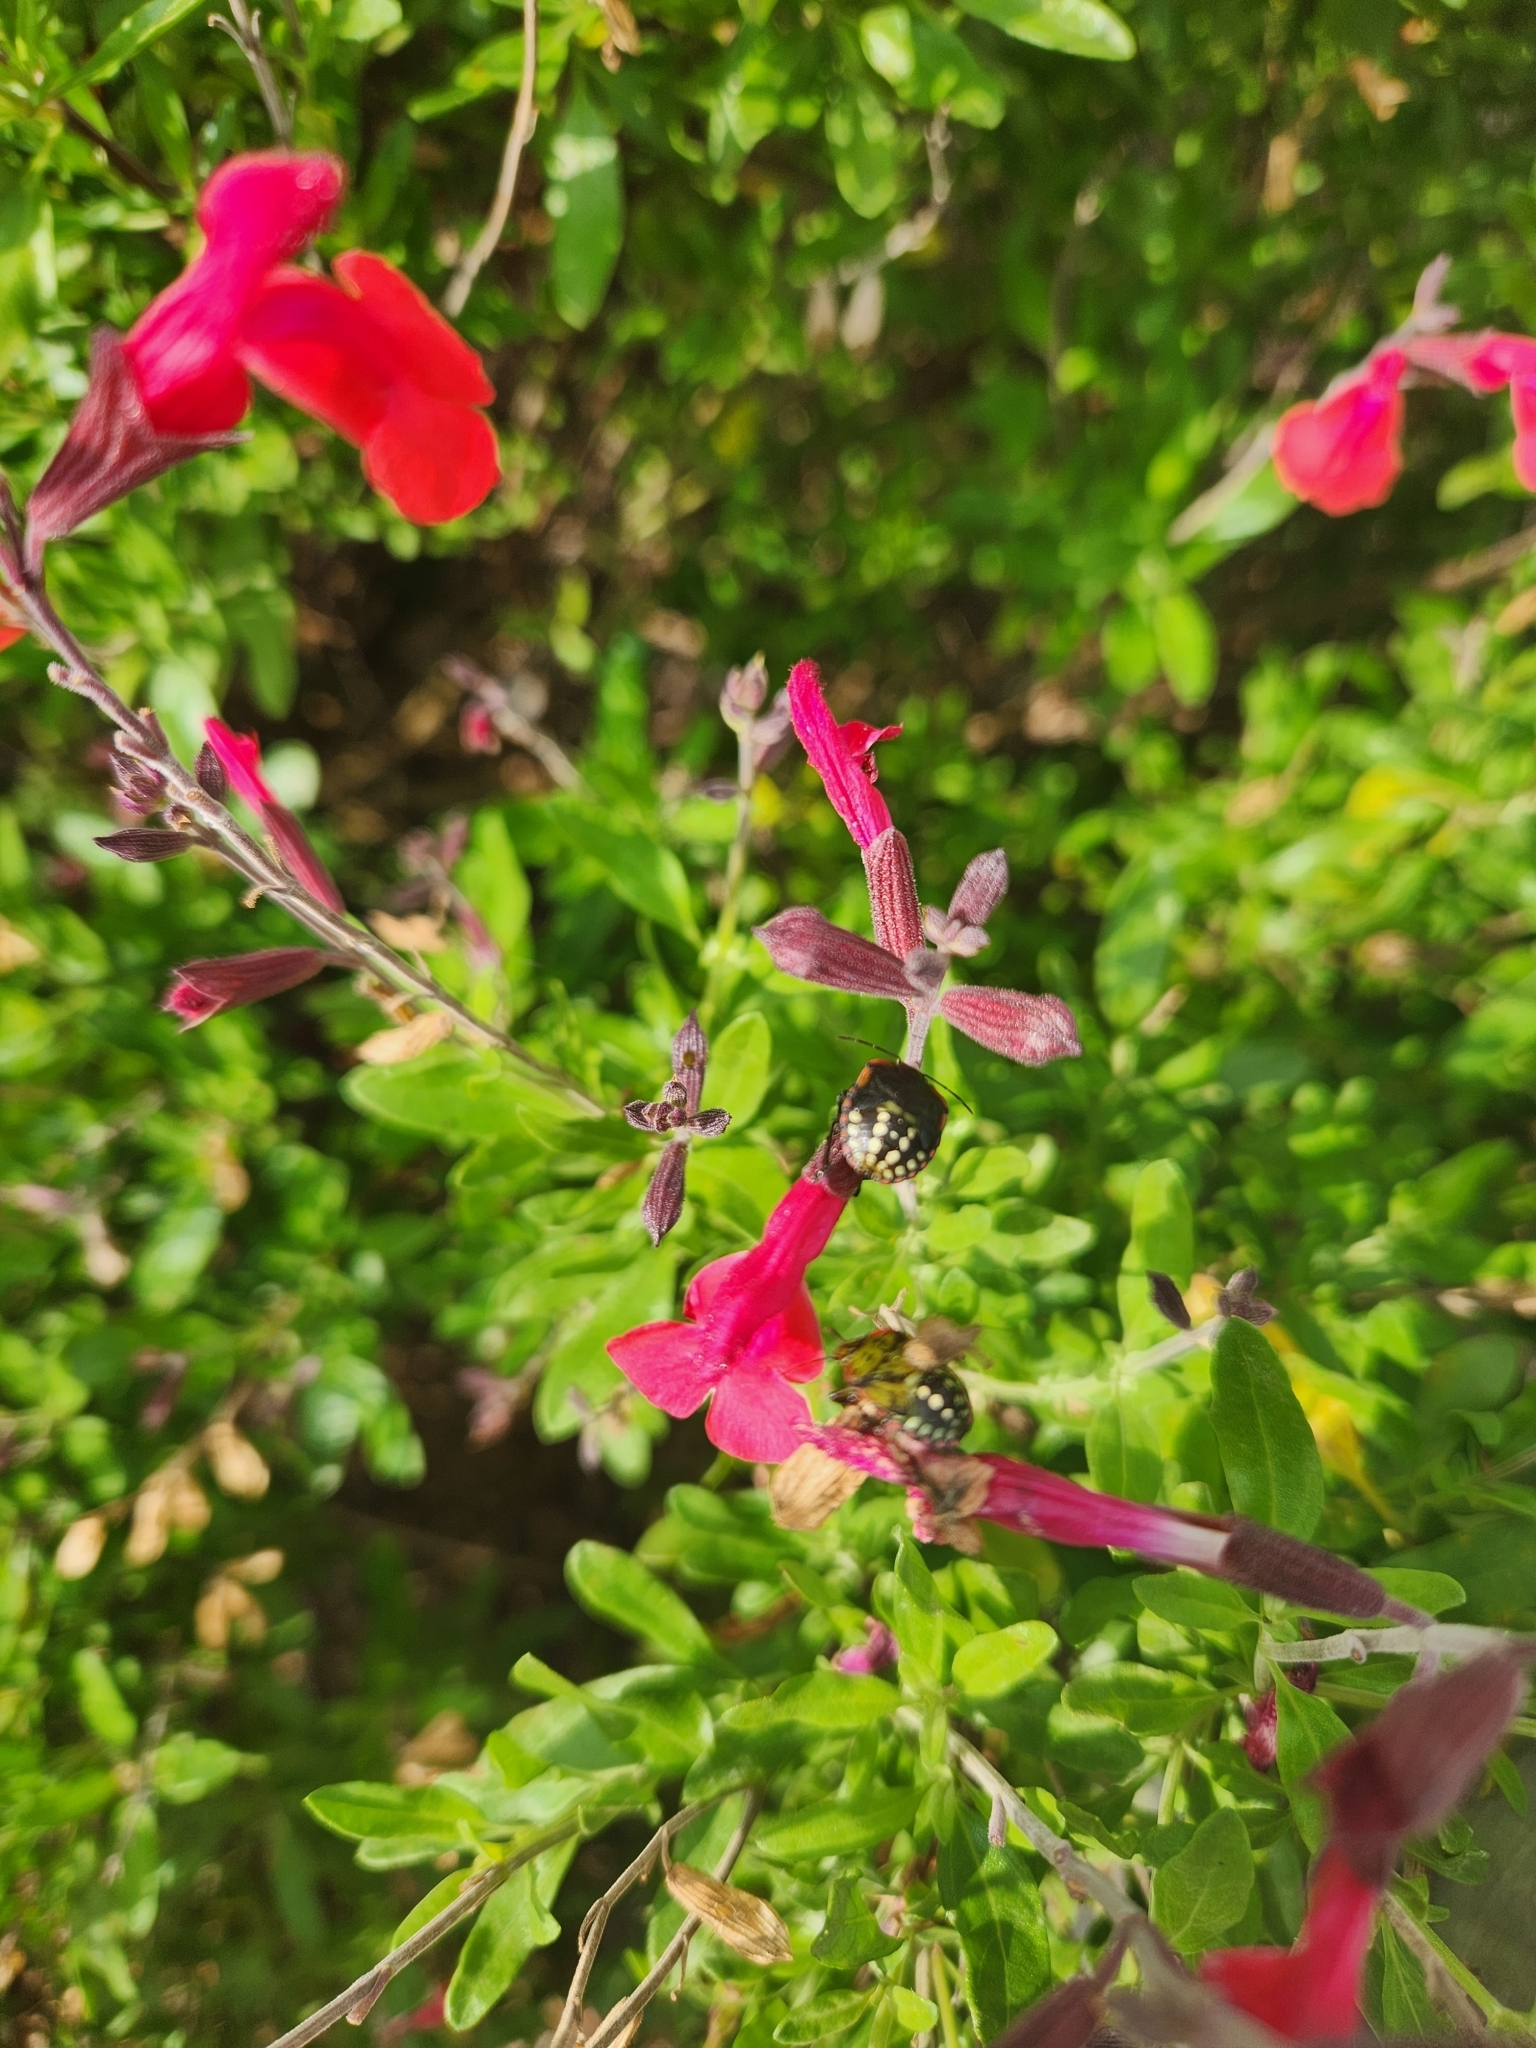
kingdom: Animalia
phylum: Arthropoda
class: Insecta
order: Hemiptera
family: Pentatomidae
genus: Nezara
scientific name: Nezara viridula
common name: Southern green stink bug
